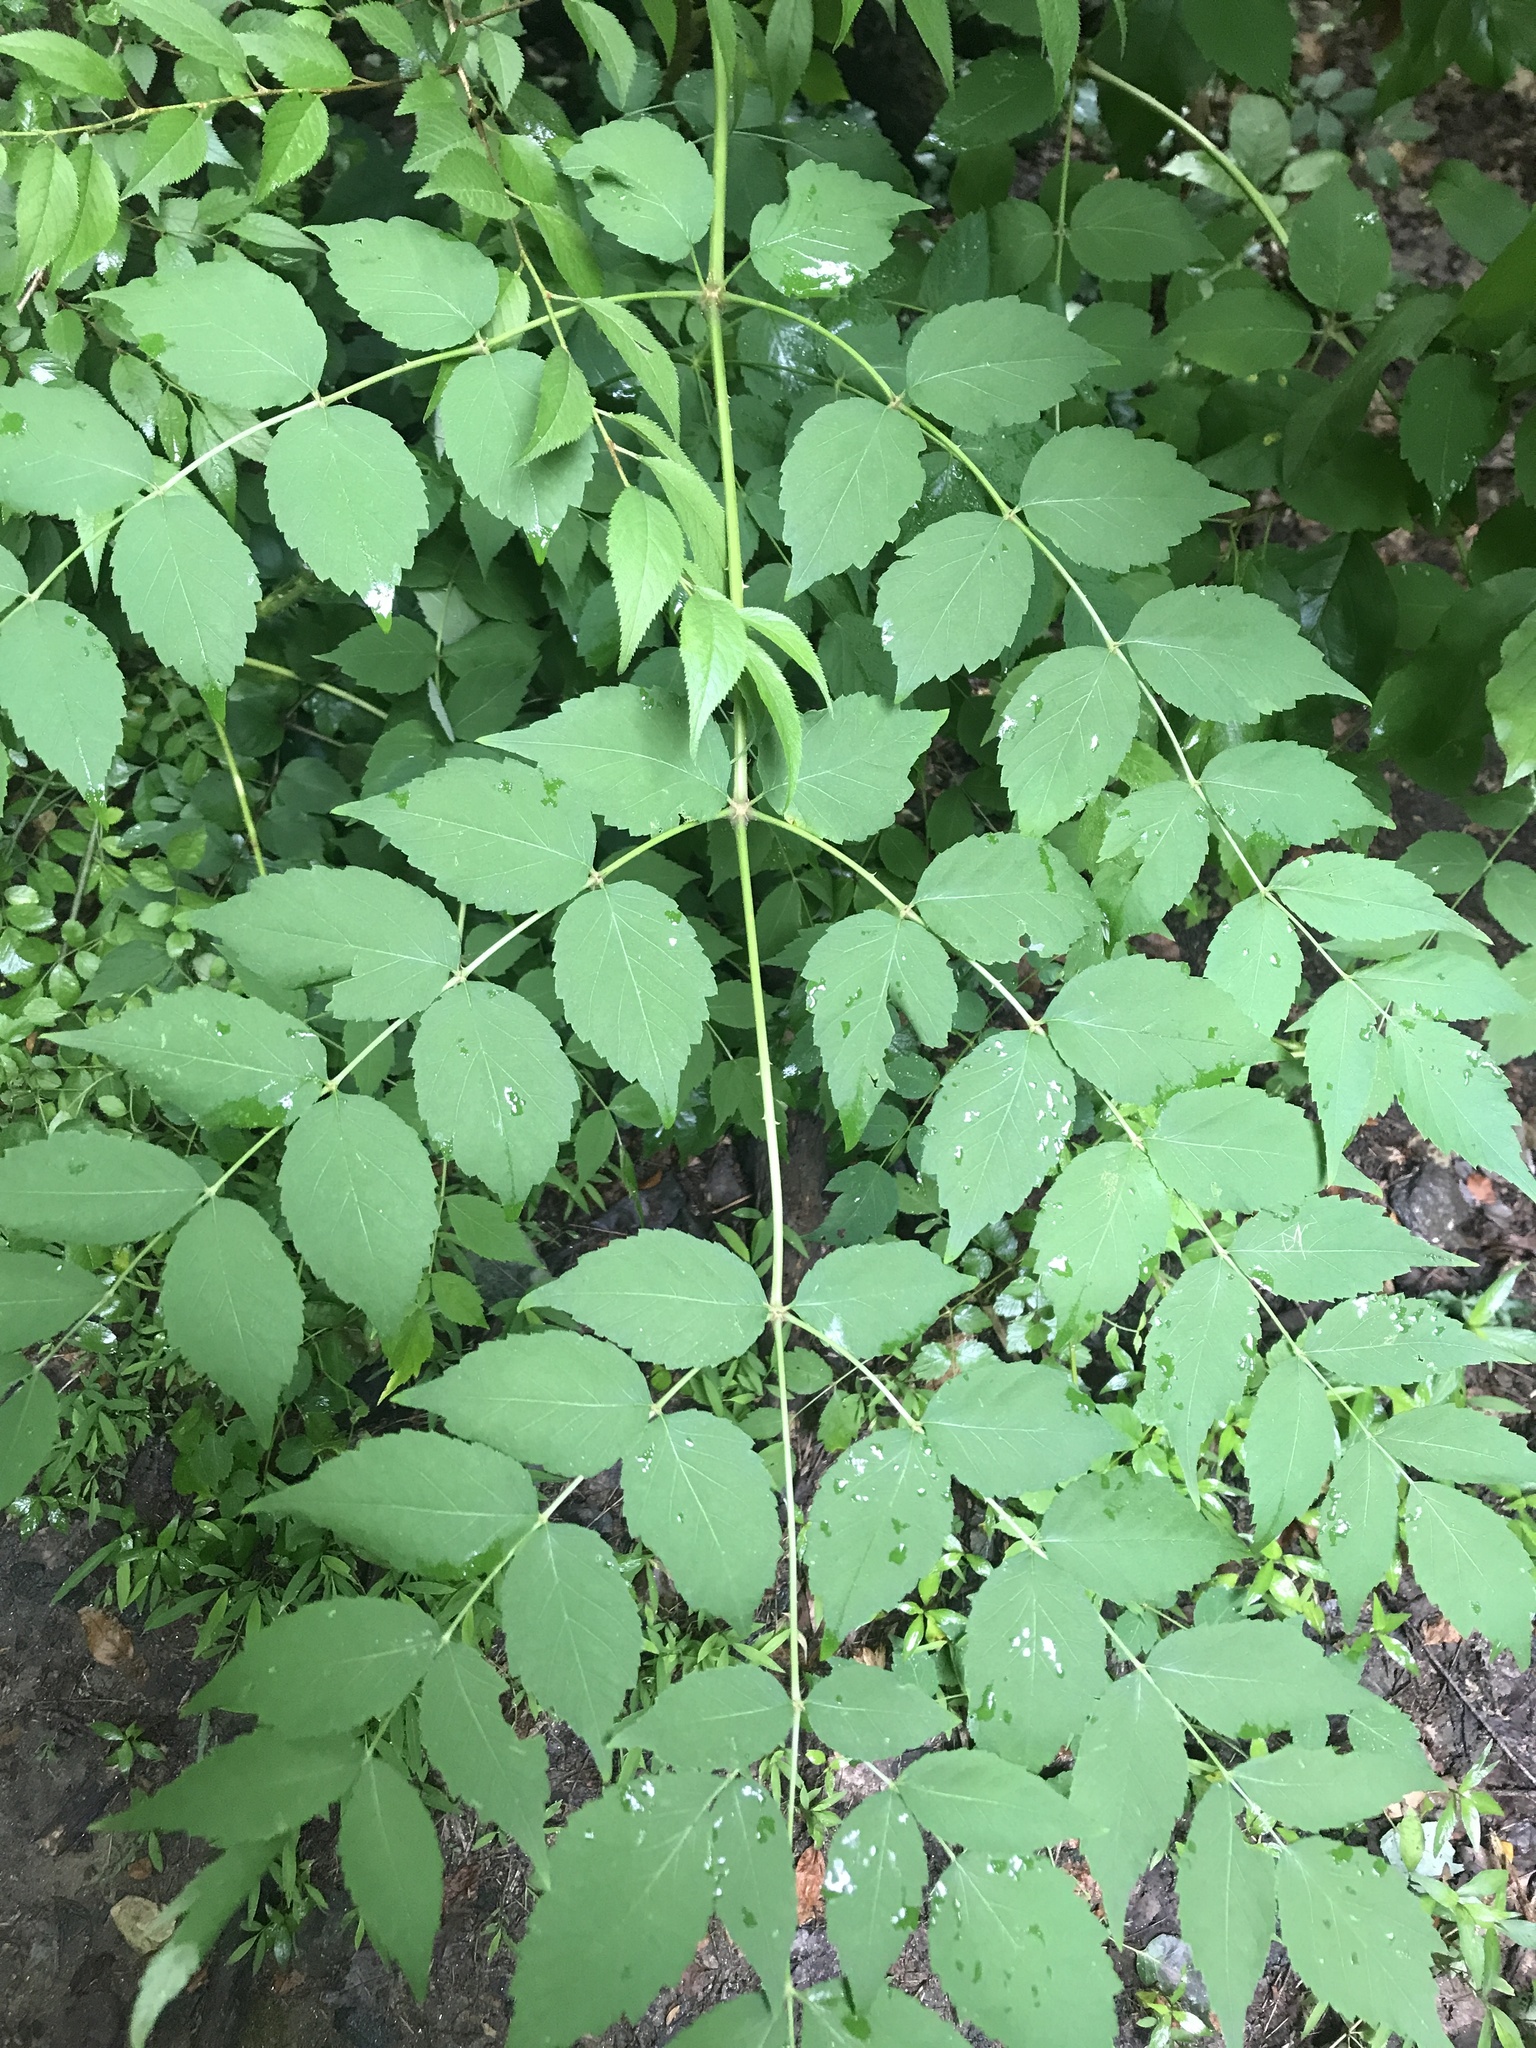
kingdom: Plantae
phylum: Tracheophyta
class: Magnoliopsida
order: Apiales
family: Araliaceae
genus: Aralia
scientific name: Aralia elata
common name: Japanese angelica-tree
